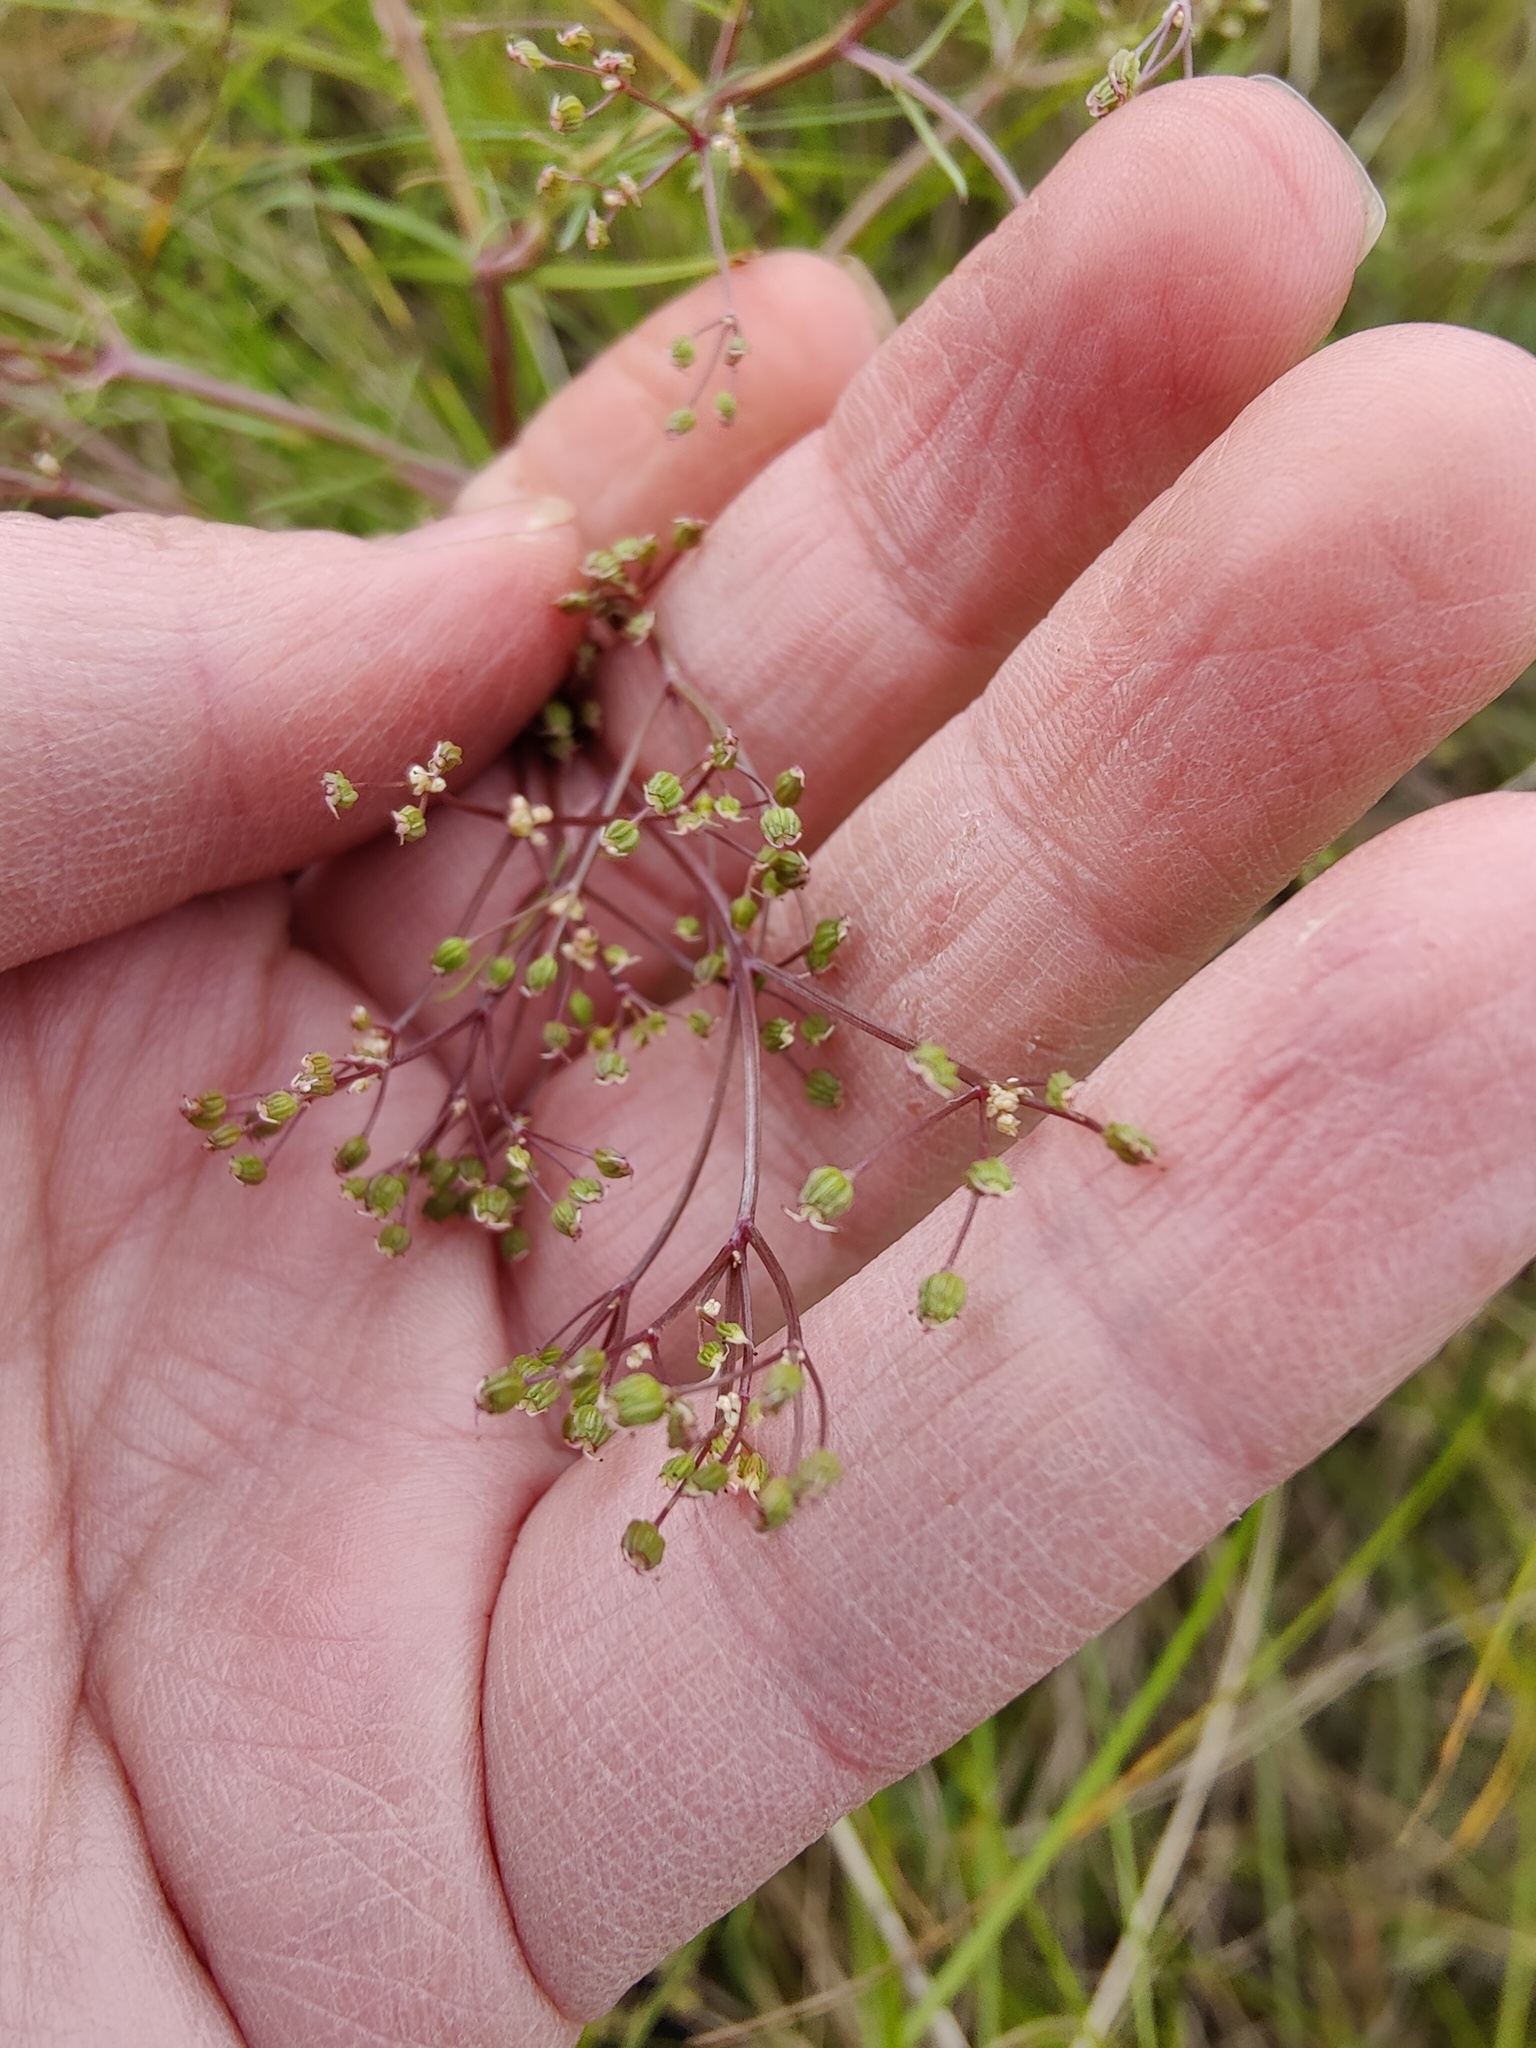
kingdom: Plantae
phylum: Tracheophyta
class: Magnoliopsida
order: Apiales
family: Apiaceae
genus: Trinia
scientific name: Trinia multicaulis
